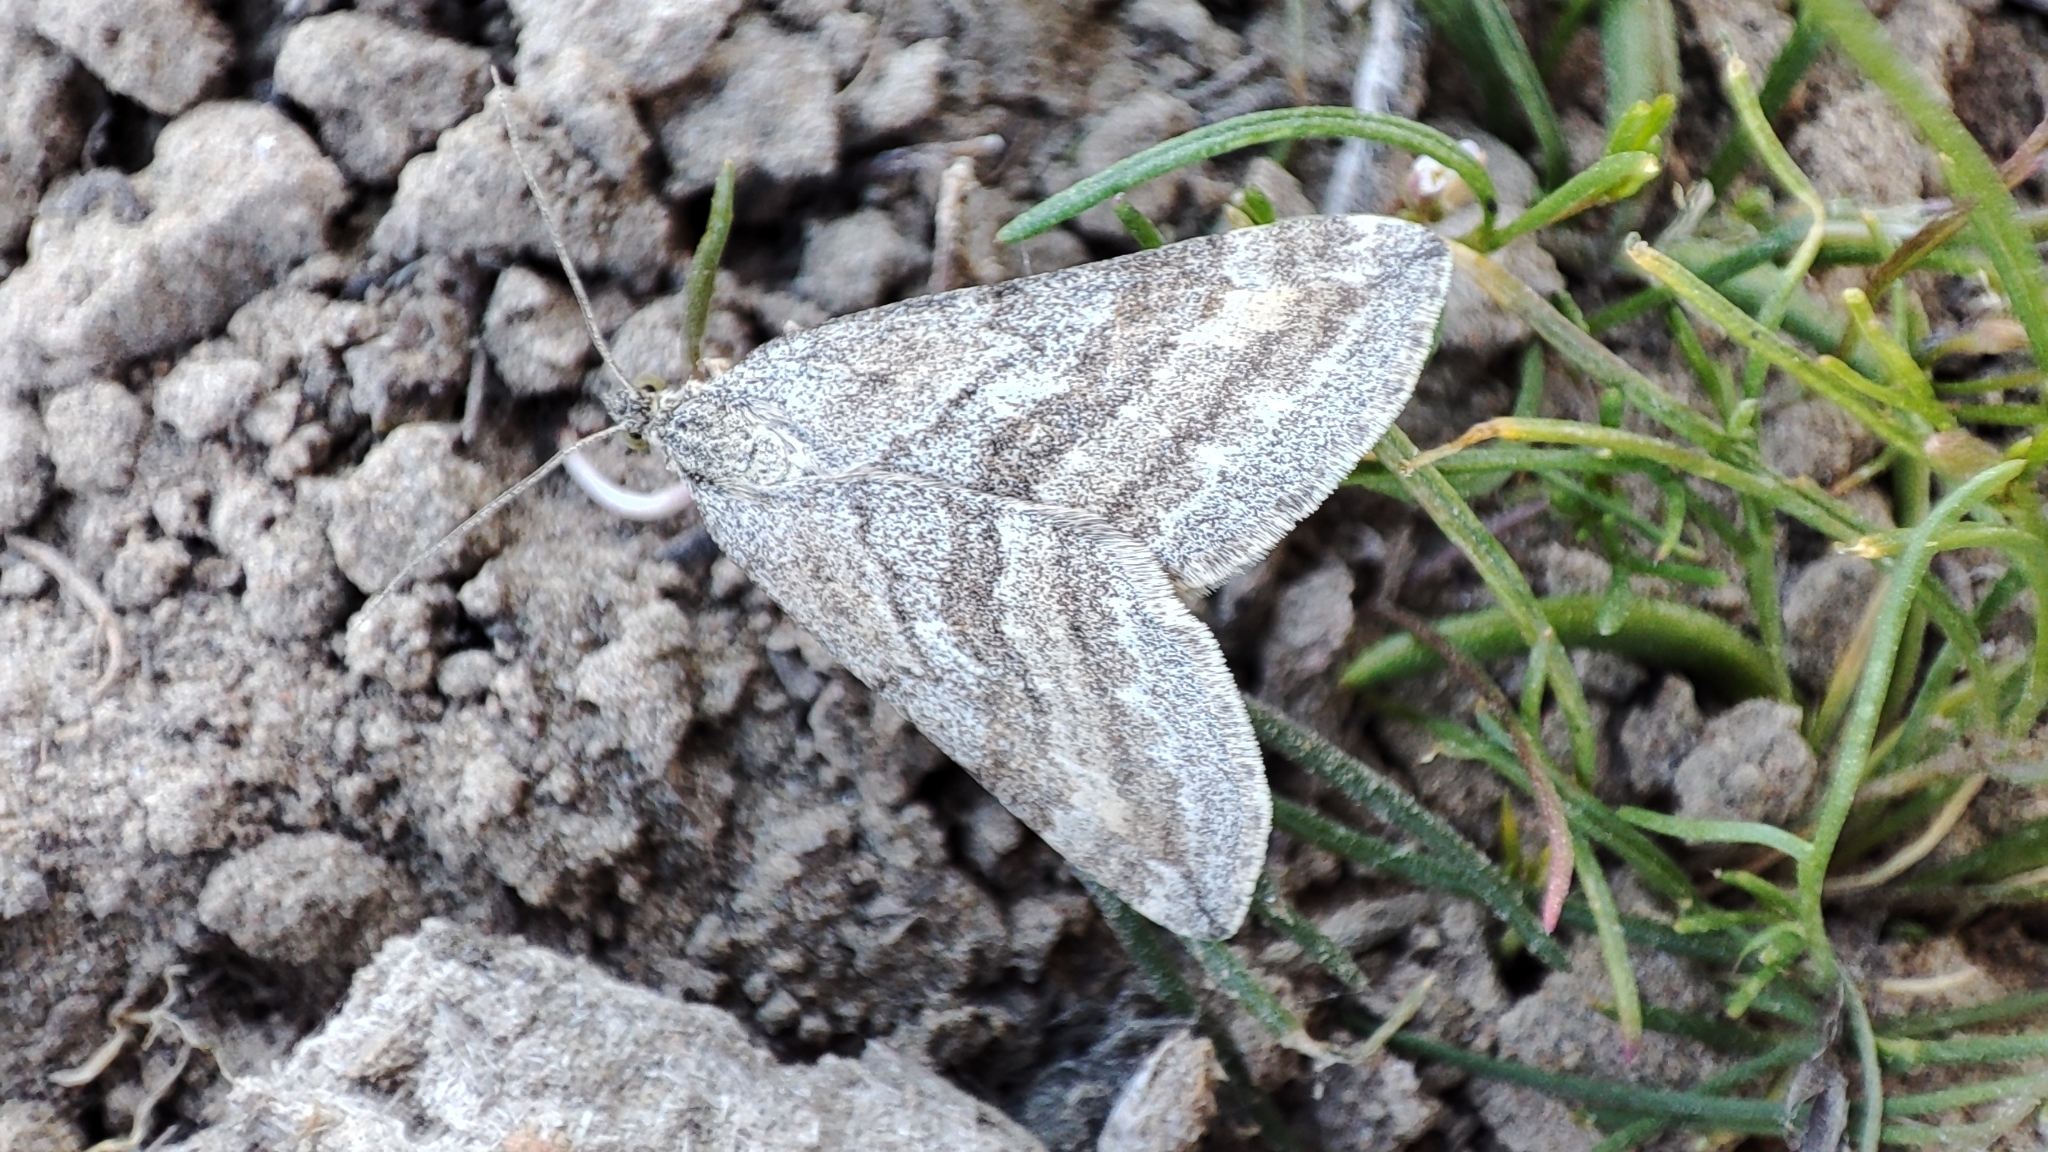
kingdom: Animalia
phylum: Arthropoda
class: Insecta
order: Lepidoptera
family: Geometridae
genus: Lithostege
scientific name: Lithostege coassata
